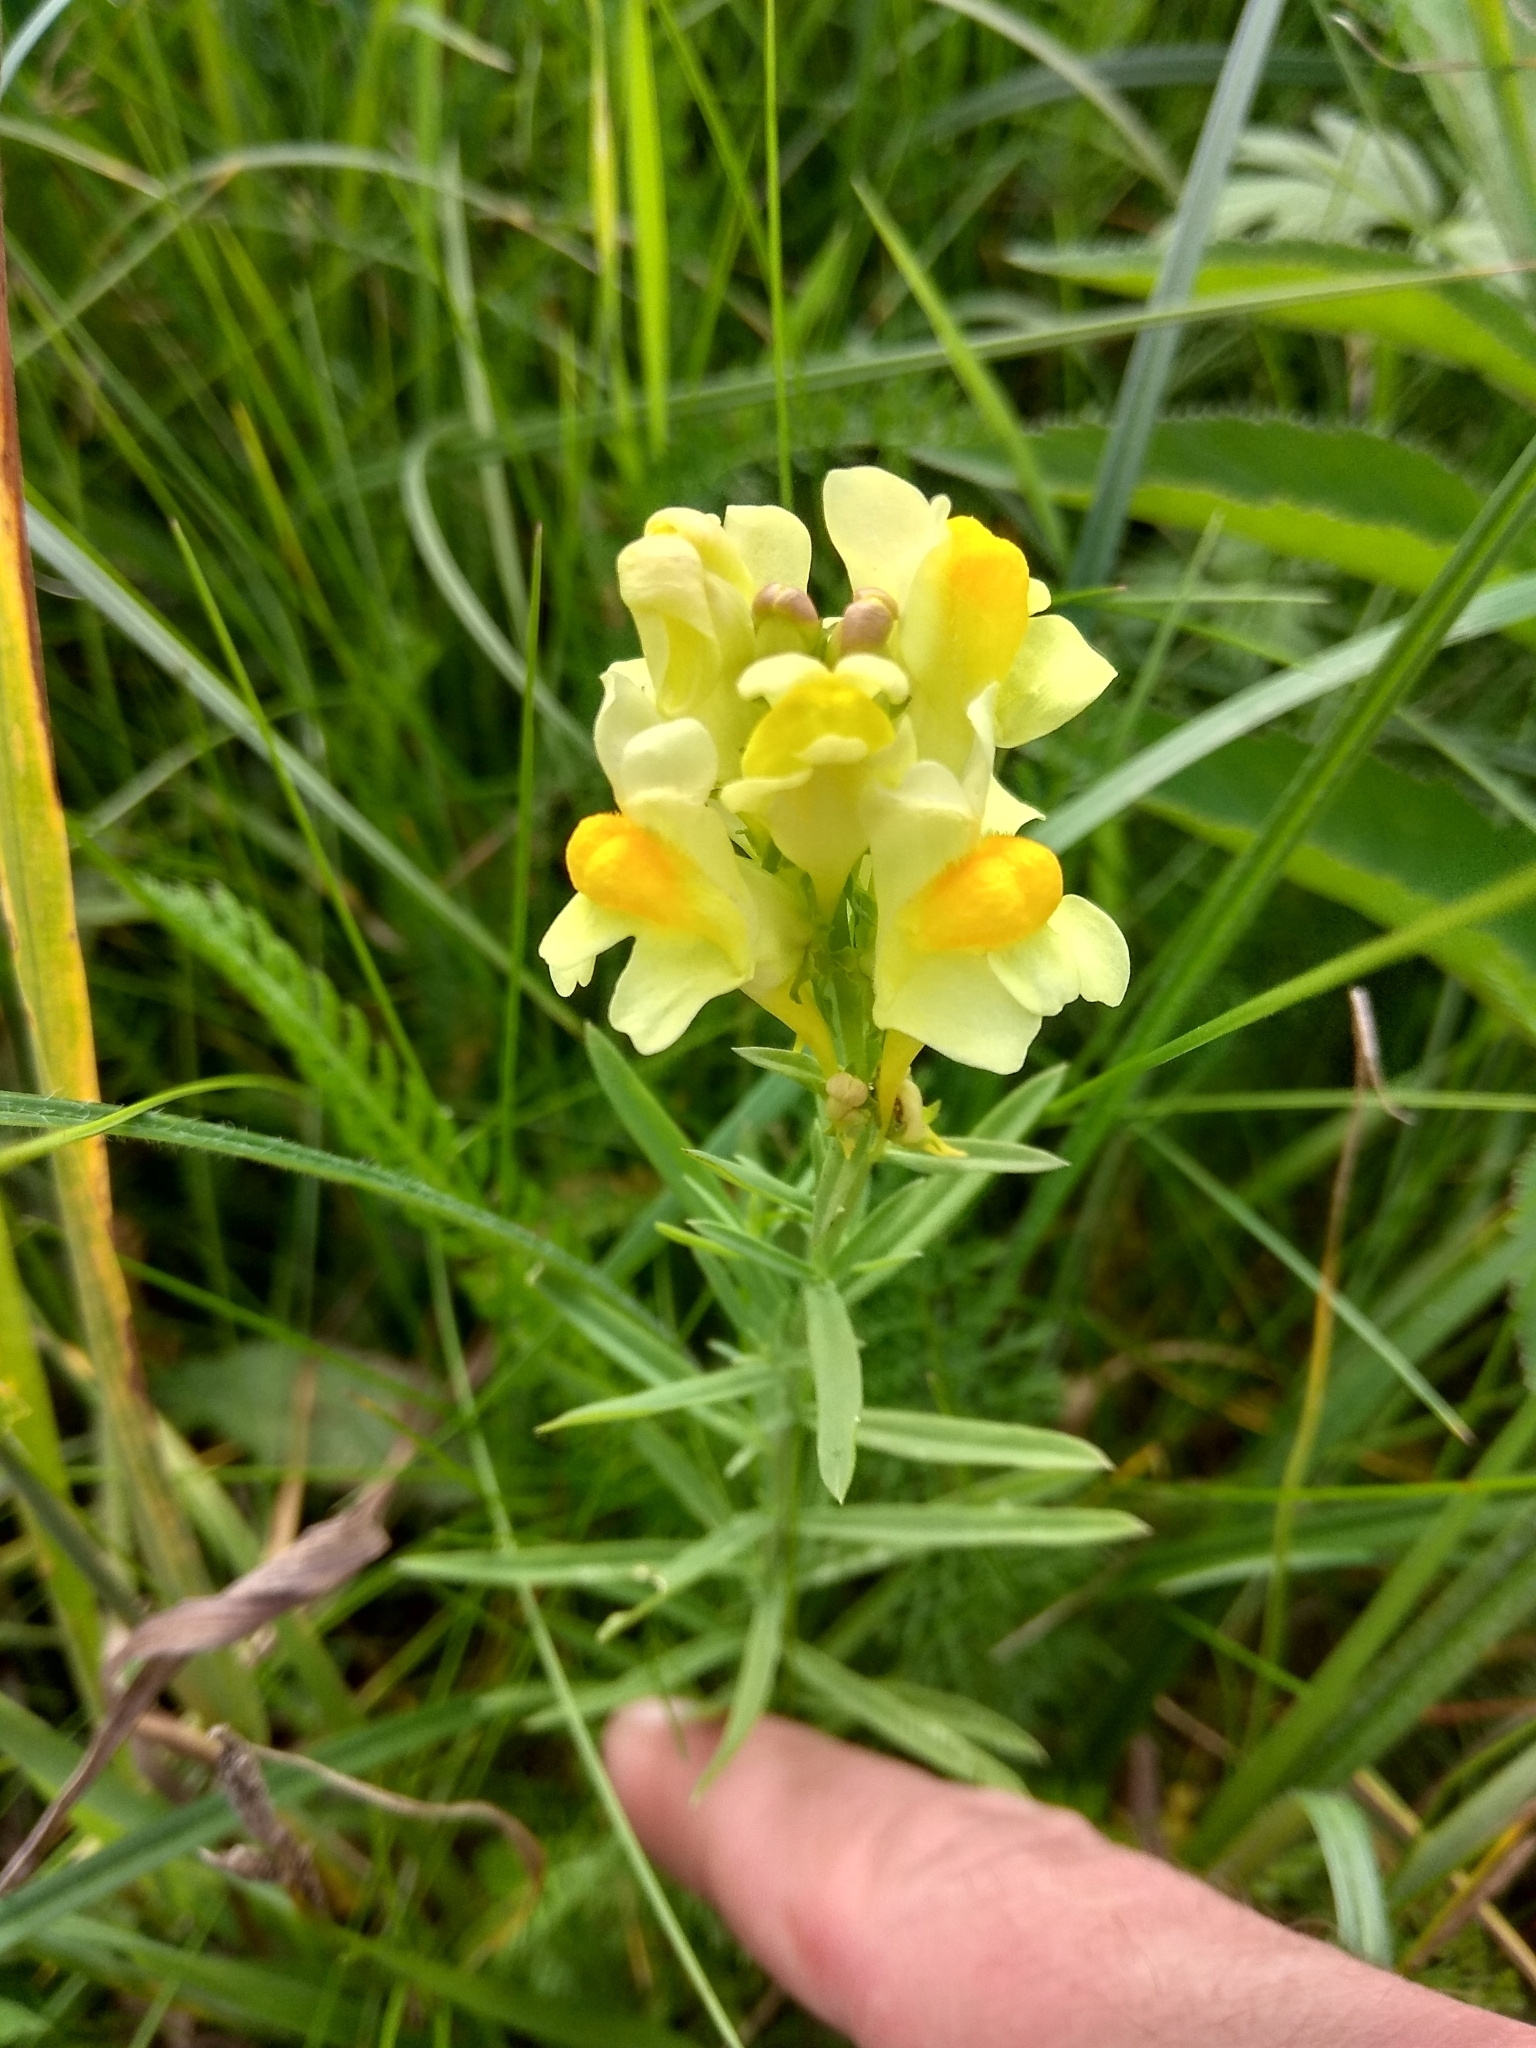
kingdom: Plantae
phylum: Tracheophyta
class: Magnoliopsida
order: Lamiales
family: Plantaginaceae
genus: Linaria
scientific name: Linaria vulgaris
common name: Butter and eggs
